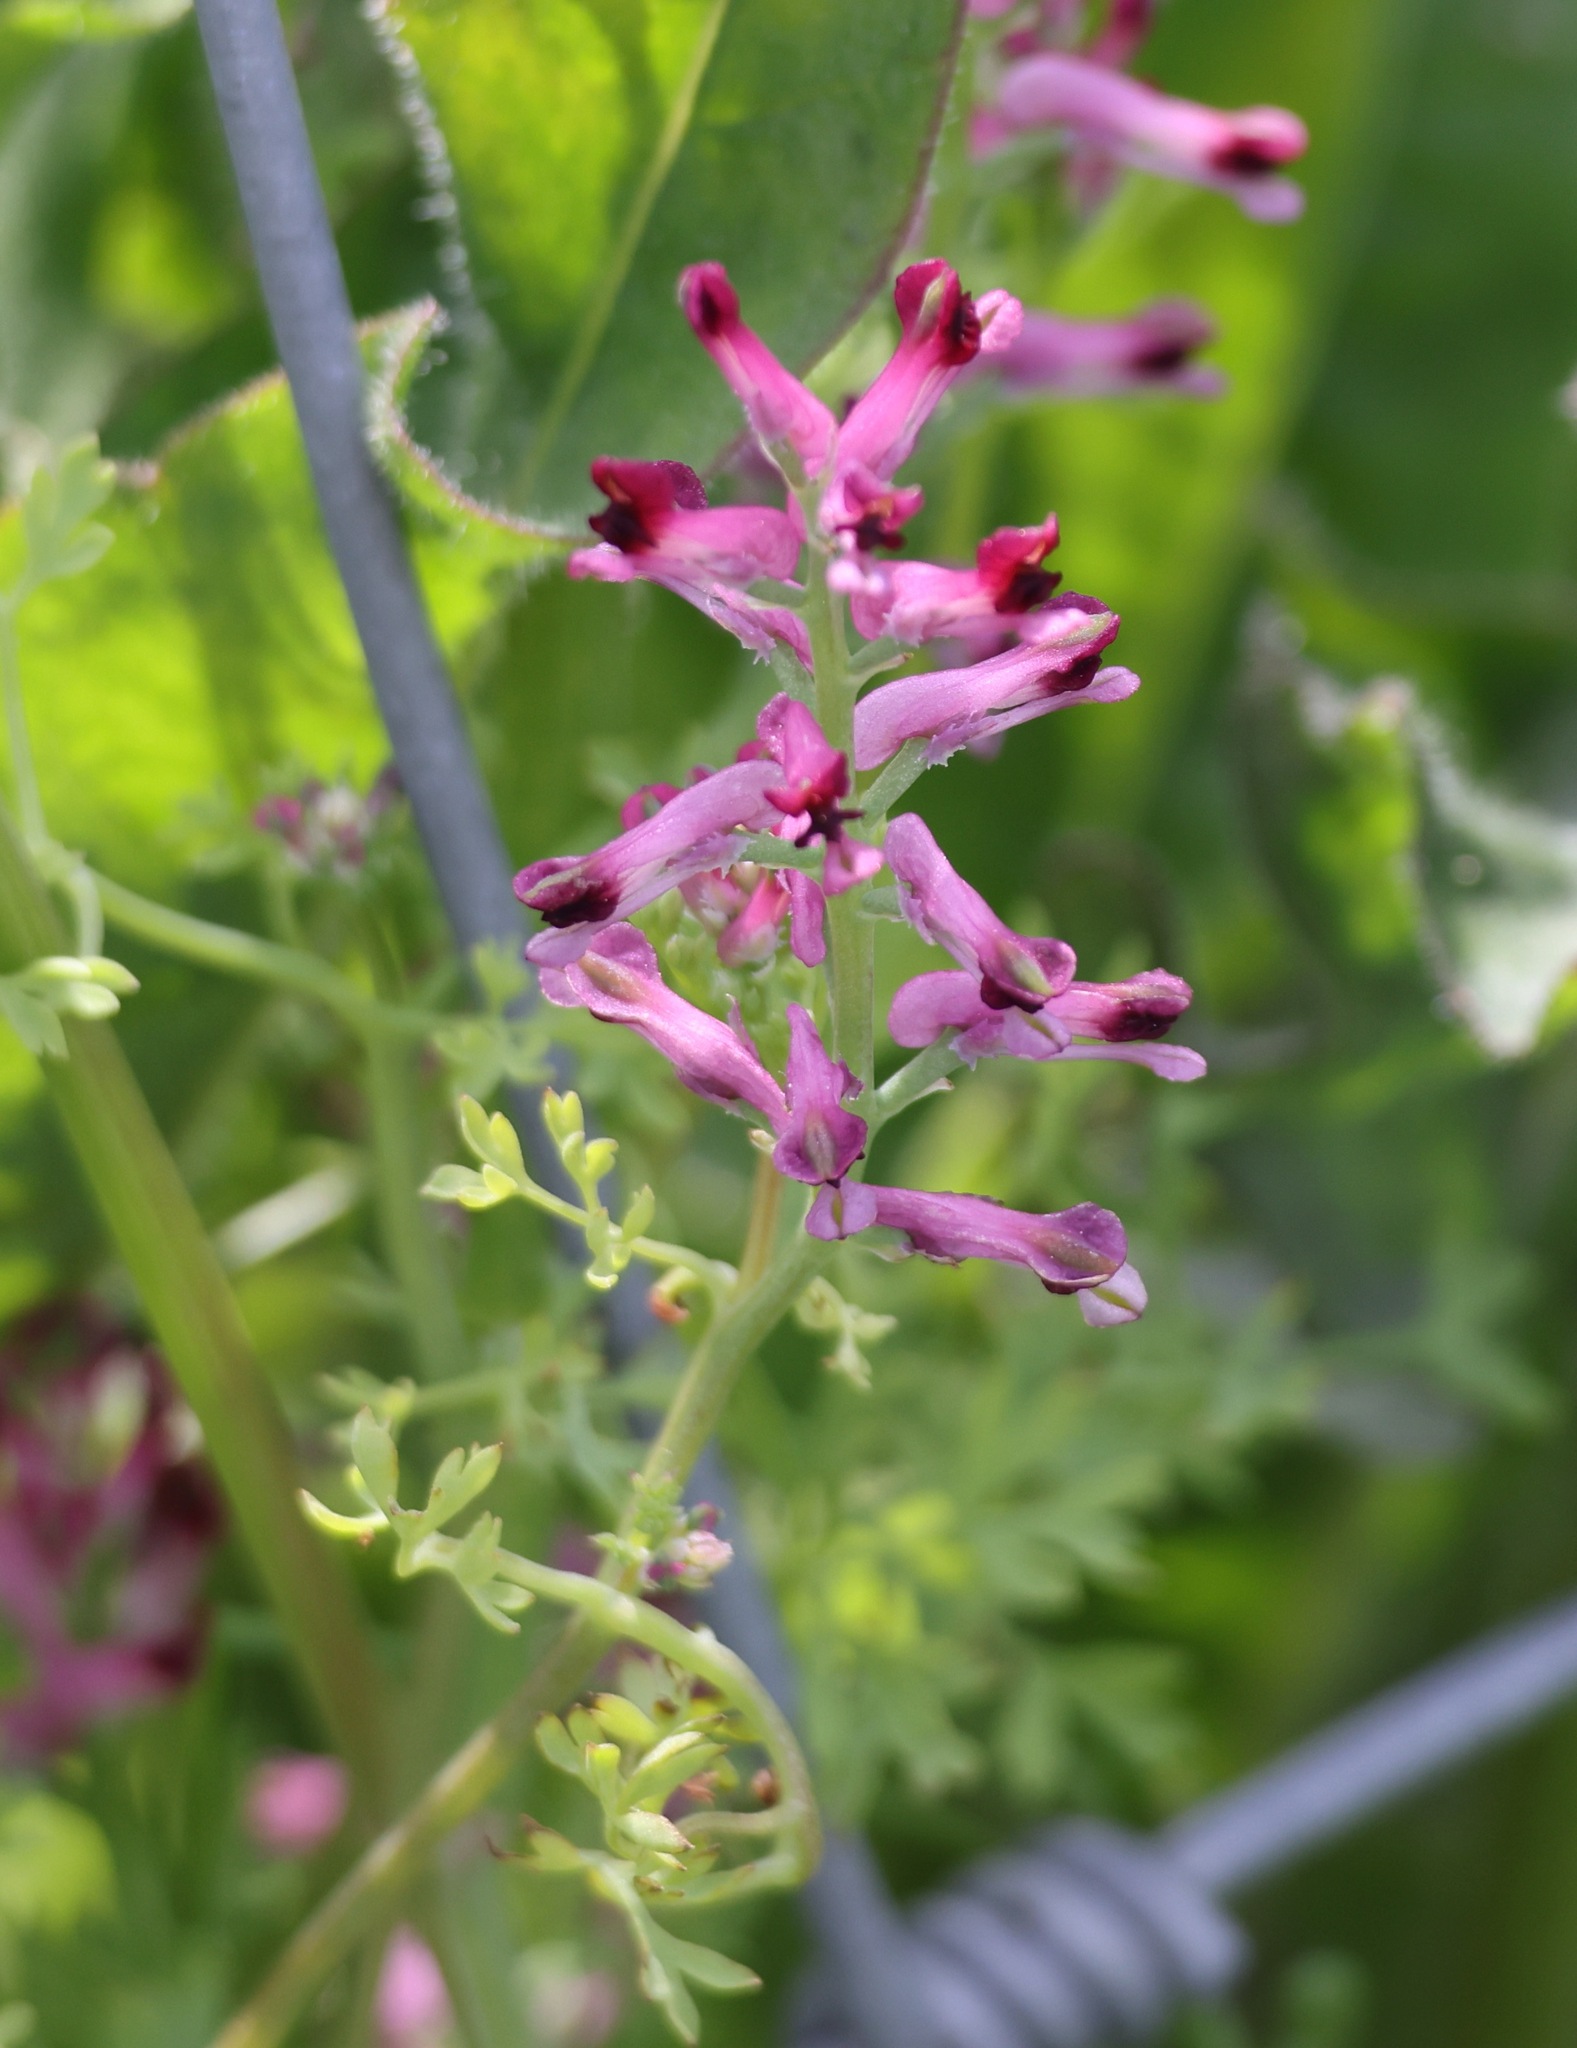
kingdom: Plantae
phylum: Tracheophyta
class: Magnoliopsida
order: Ranunculales
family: Papaveraceae
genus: Fumaria
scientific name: Fumaria muralis
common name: Common ramping-fumitory
